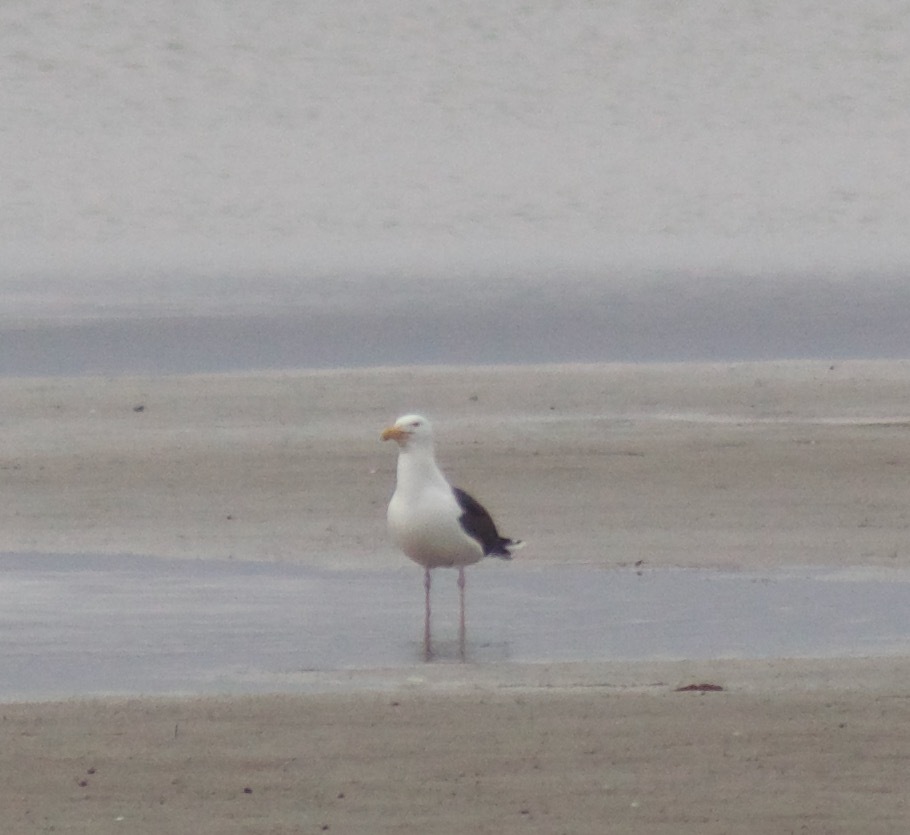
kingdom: Animalia
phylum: Chordata
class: Aves
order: Charadriiformes
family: Laridae
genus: Larus
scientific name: Larus marinus
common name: Great black-backed gull
